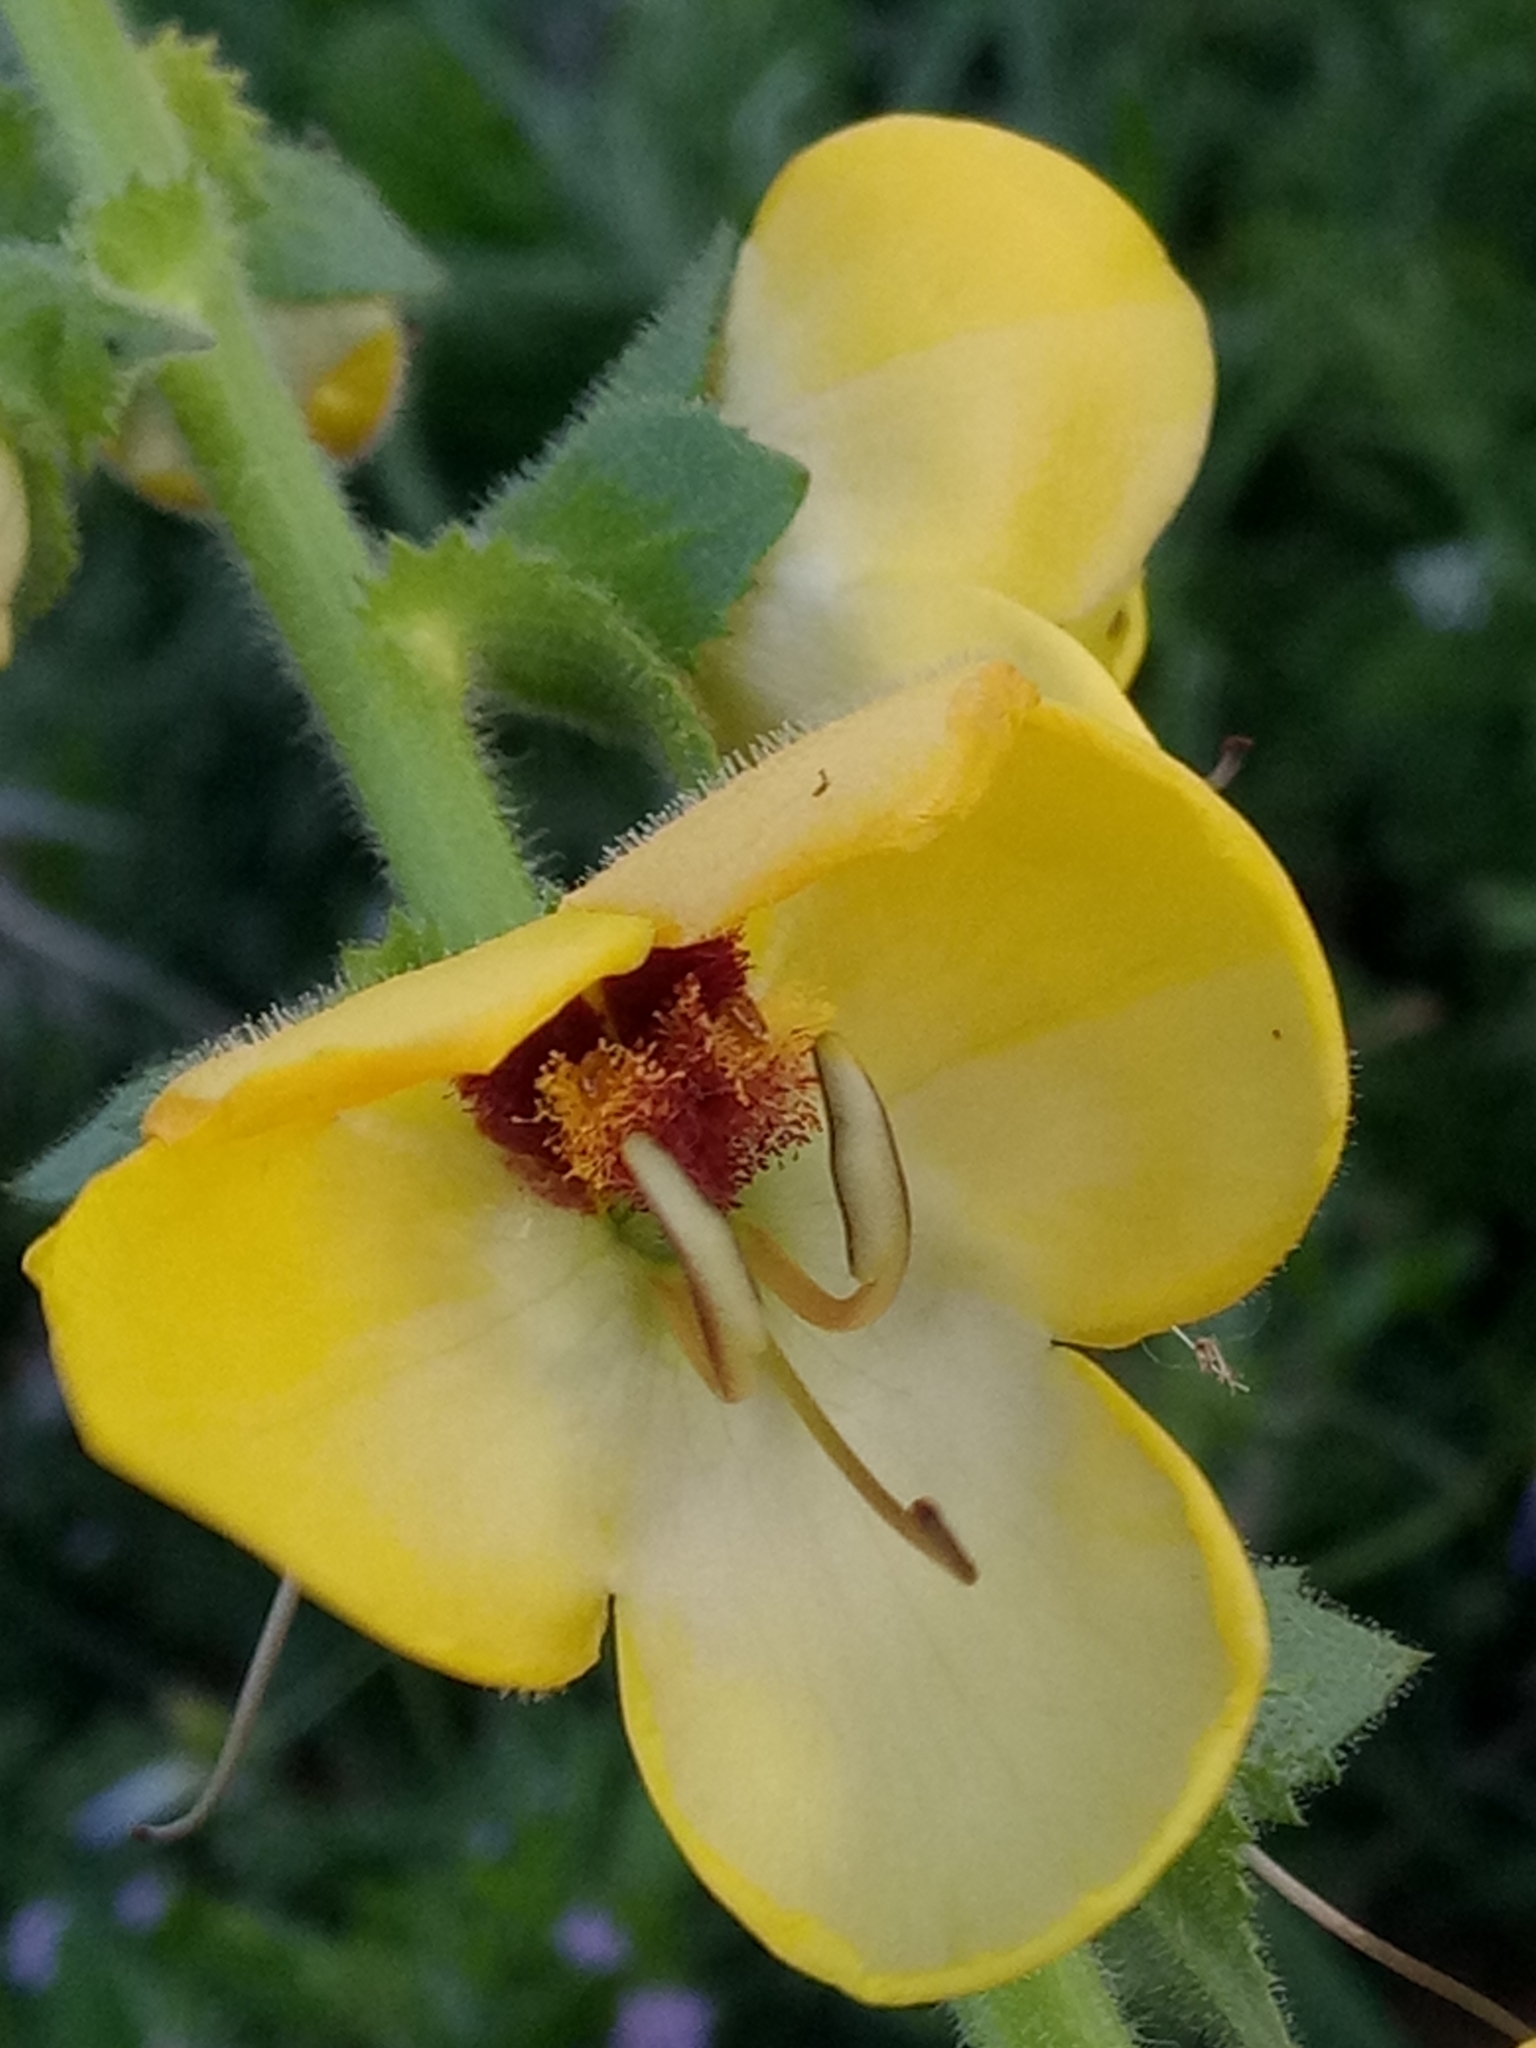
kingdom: Plantae
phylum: Tracheophyta
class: Magnoliopsida
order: Lamiales
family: Scrophulariaceae
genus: Verbascum
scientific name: Verbascum creticum
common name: Cretan mullein
